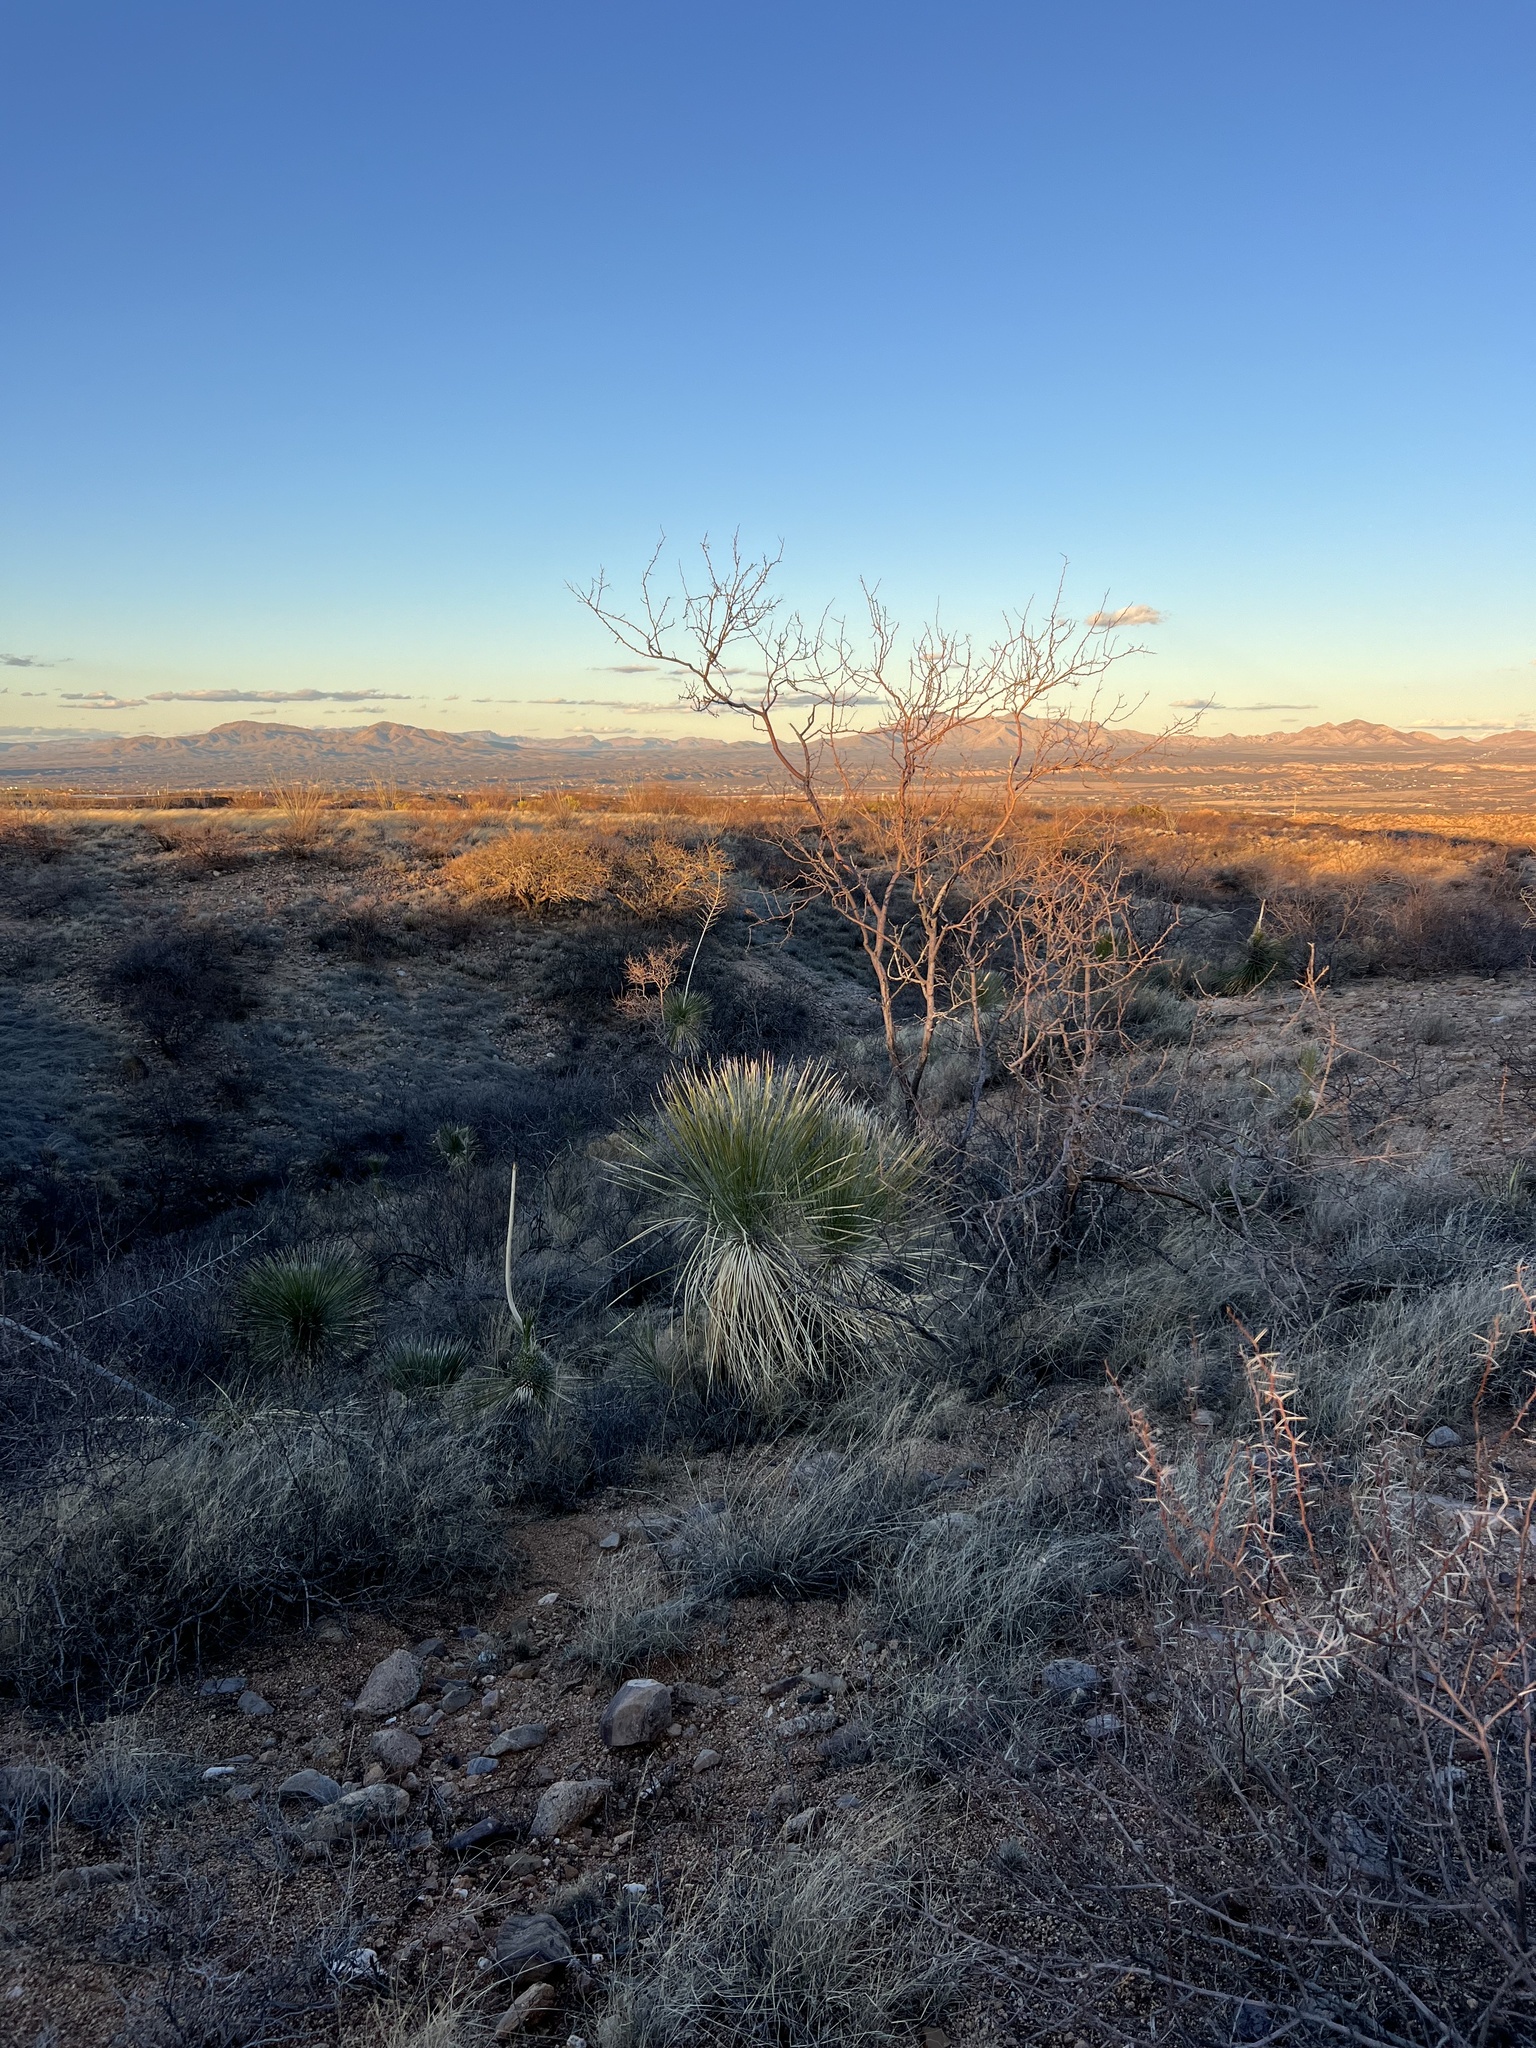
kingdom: Plantae
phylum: Tracheophyta
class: Liliopsida
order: Asparagales
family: Asparagaceae
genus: Yucca
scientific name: Yucca elata
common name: Palmella
